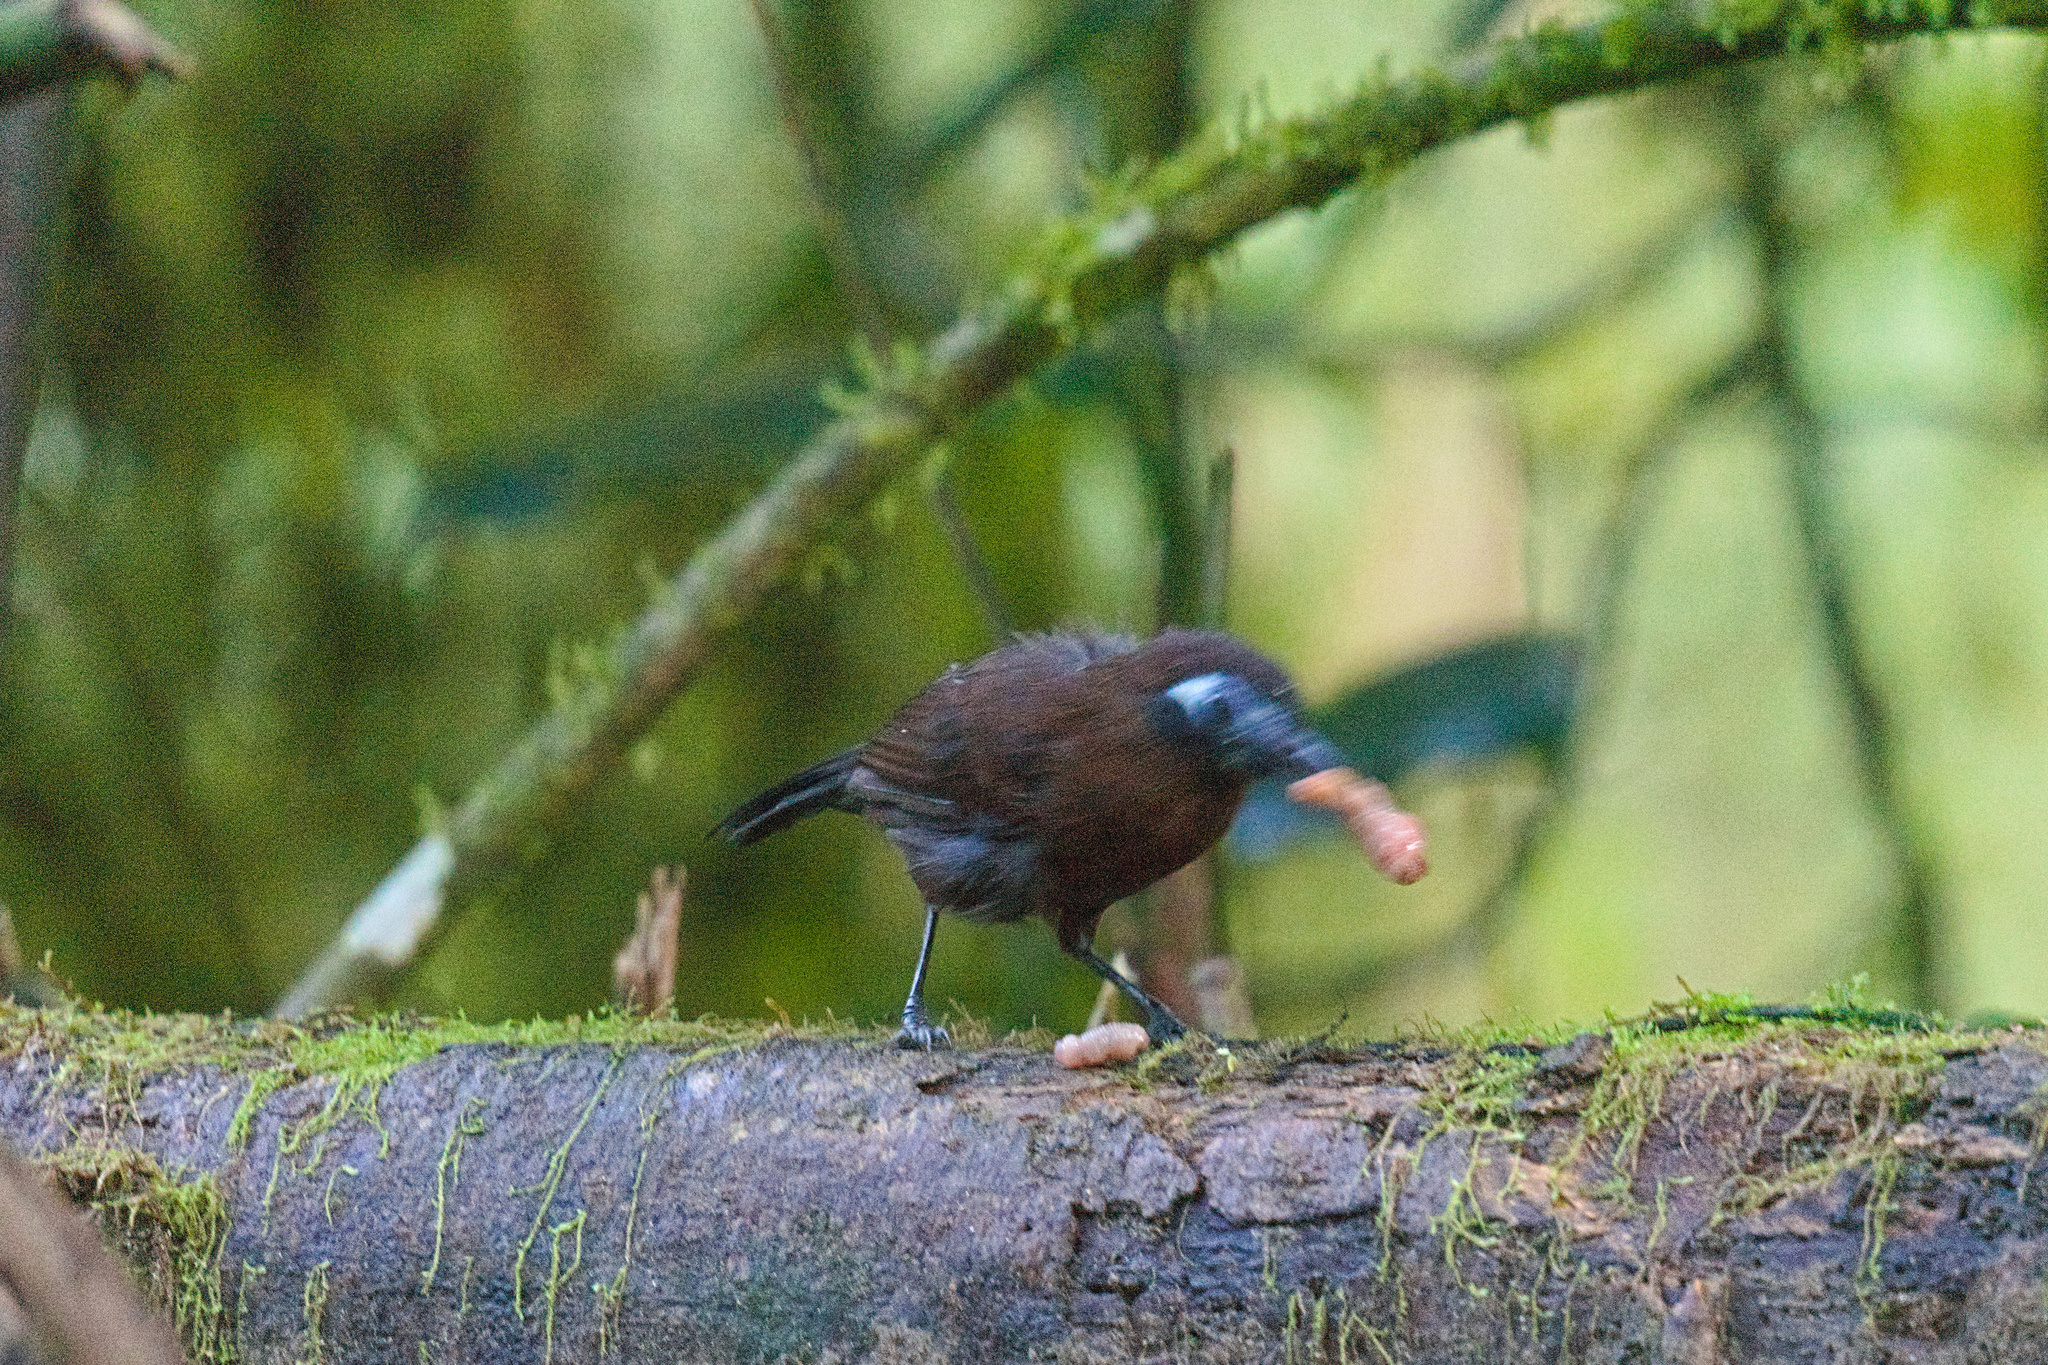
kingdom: Animalia
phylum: Chordata
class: Aves
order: Passeriformes
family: Thamnophilidae
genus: Hafferia
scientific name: Hafferia zeledoni
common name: Zeledon's antbird
